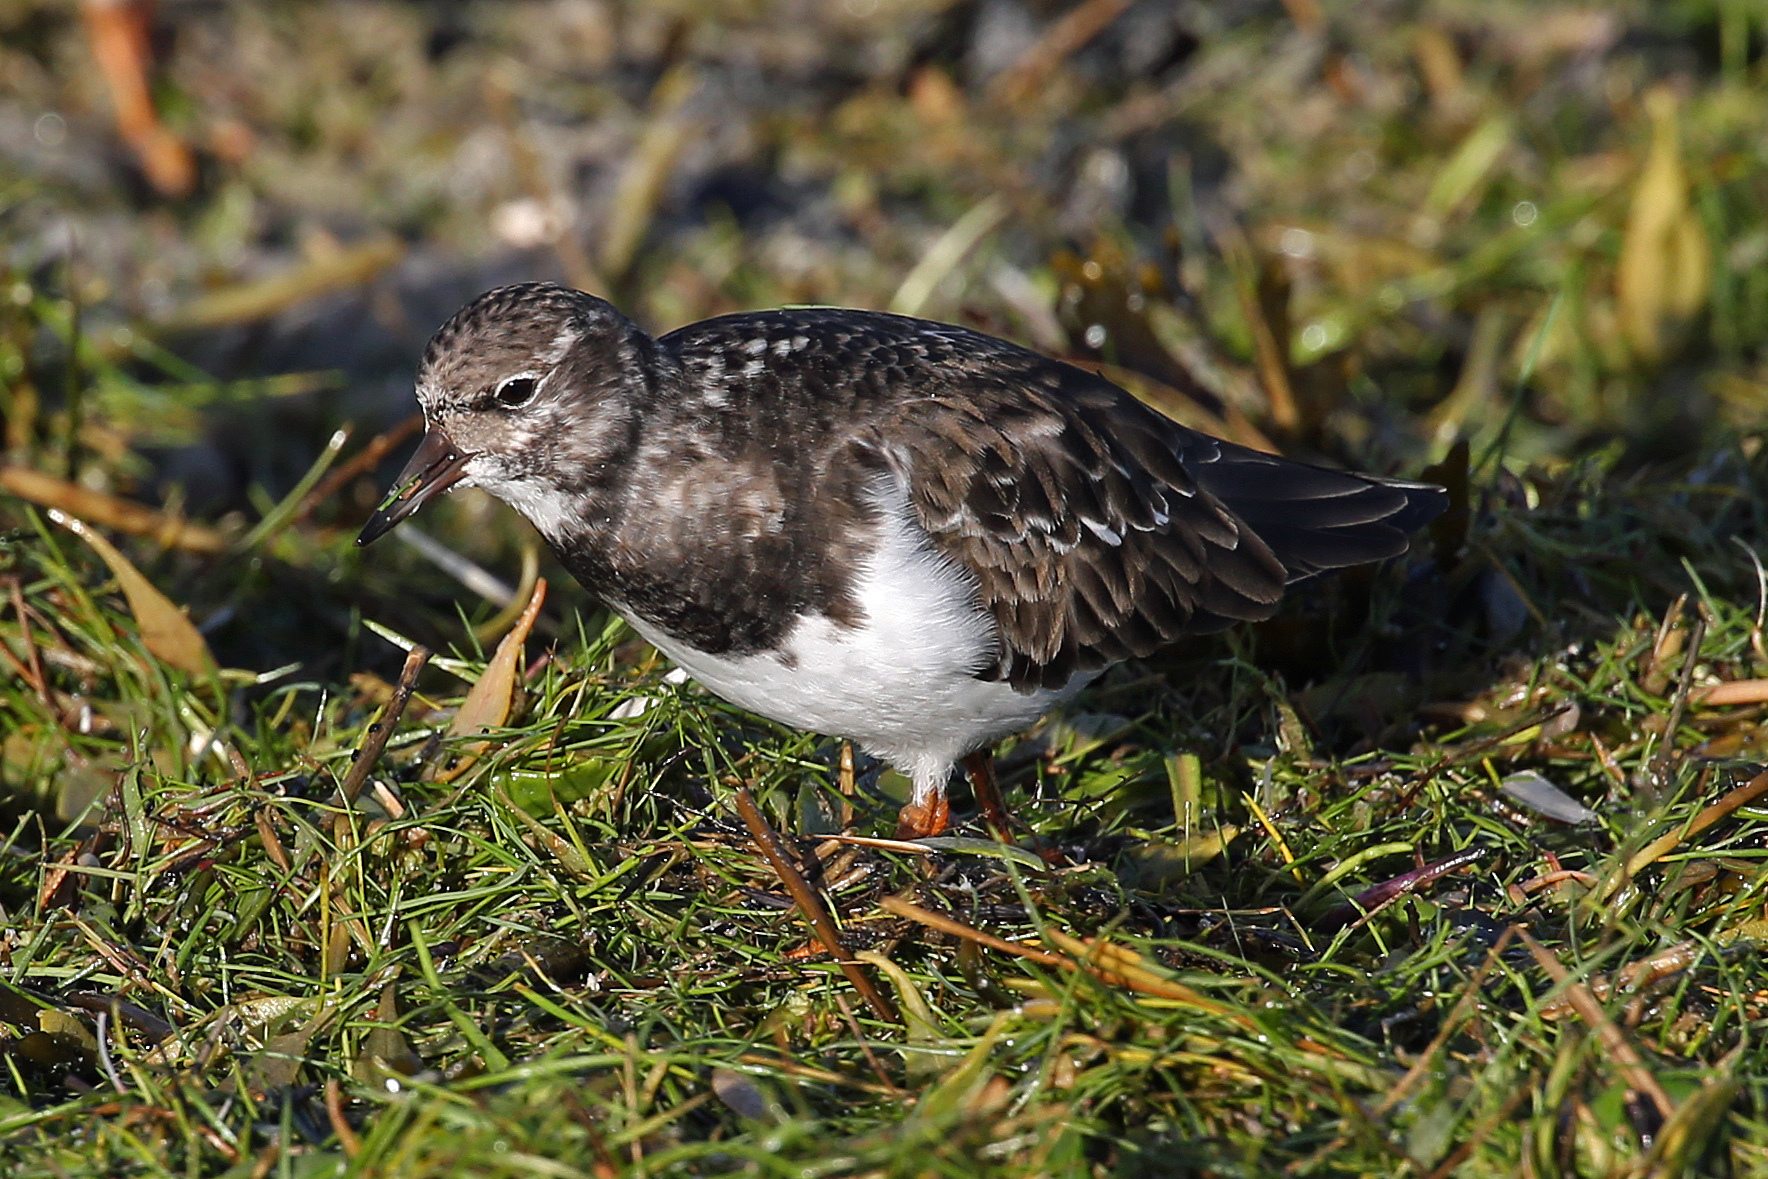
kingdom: Animalia
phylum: Chordata
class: Aves
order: Charadriiformes
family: Scolopacidae
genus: Arenaria
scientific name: Arenaria interpres
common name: Ruddy turnstone
